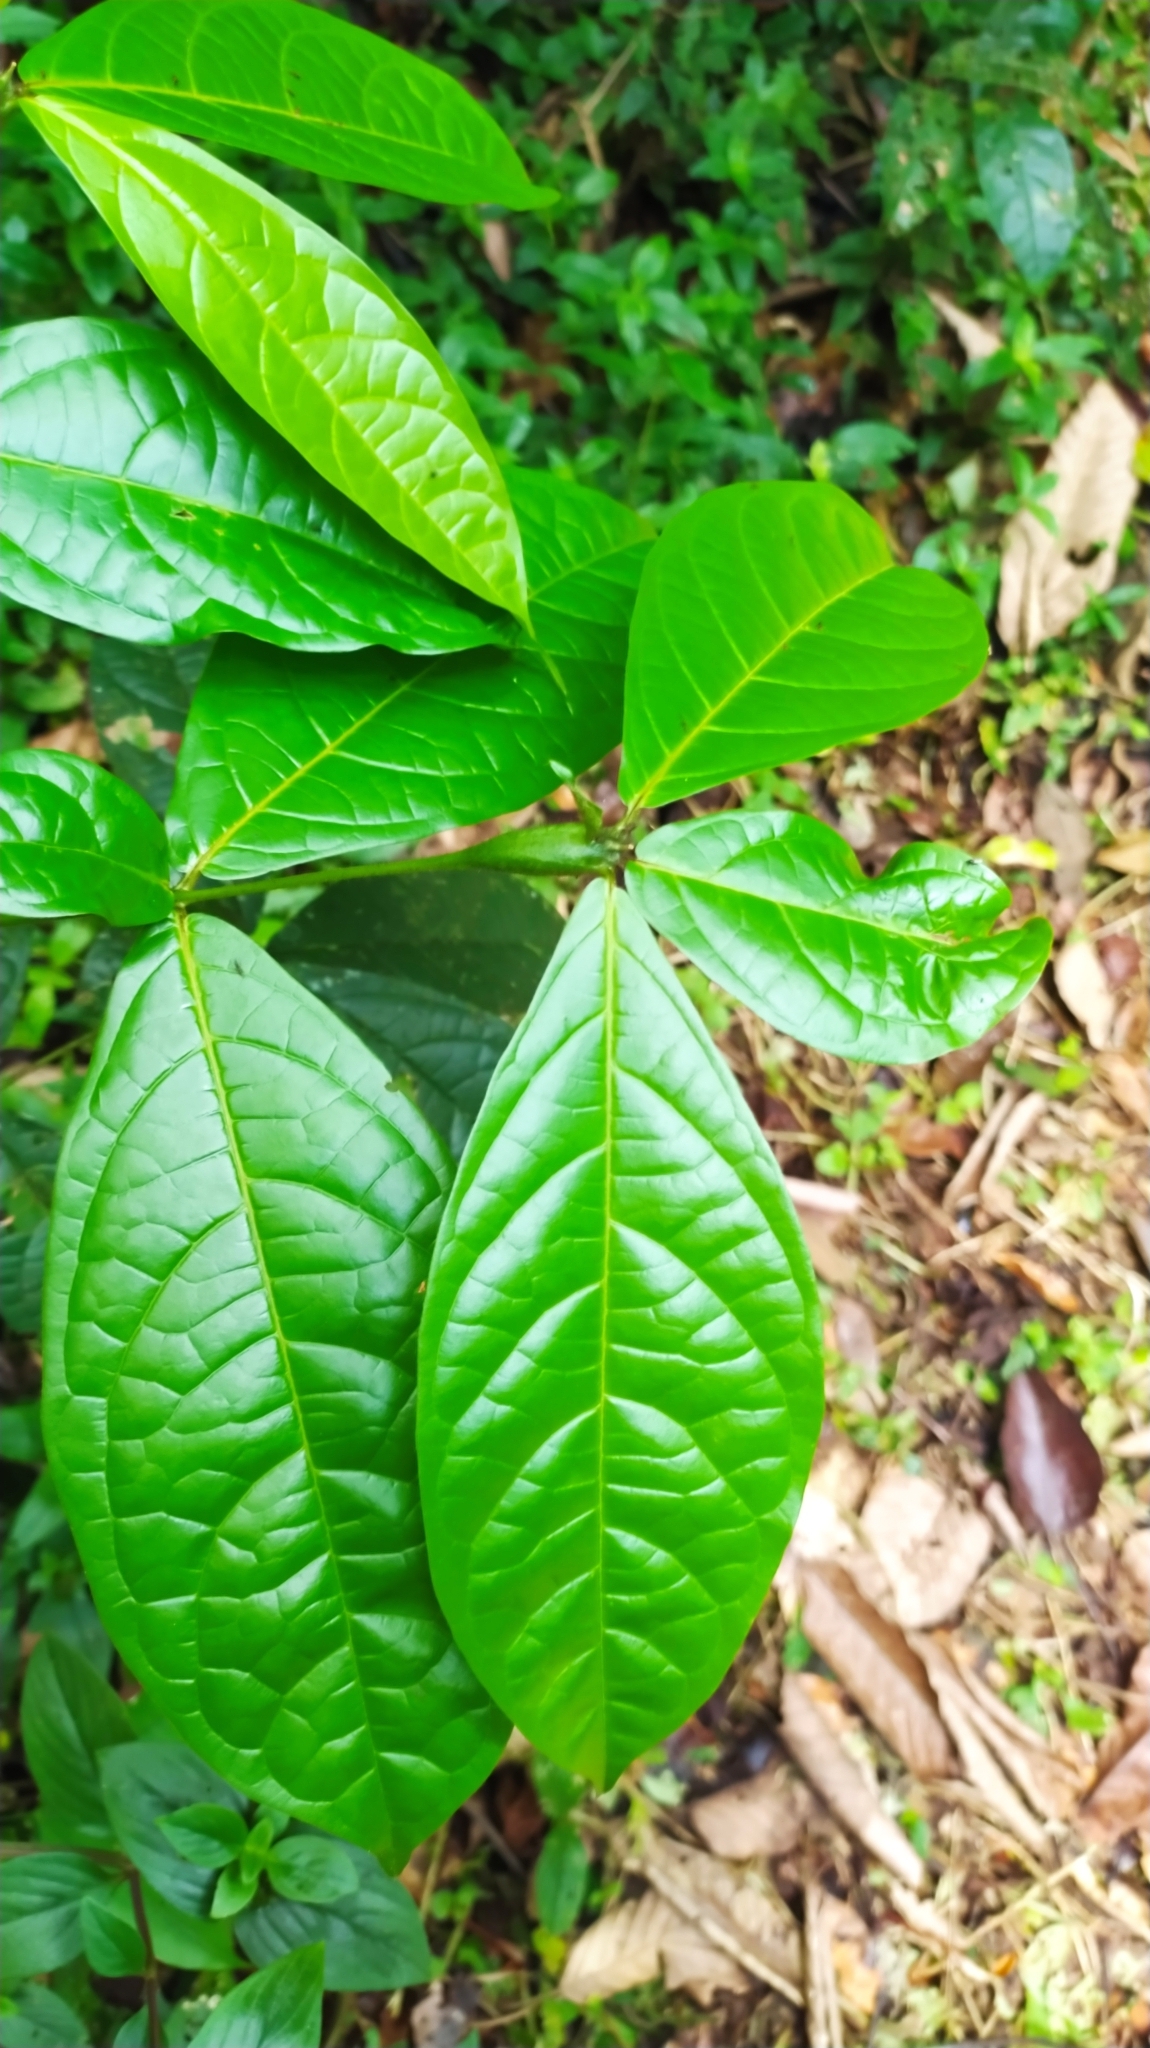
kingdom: Plantae
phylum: Tracheophyta
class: Magnoliopsida
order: Boraginales
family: Cordiaceae
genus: Cordia
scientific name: Cordia nodosa
